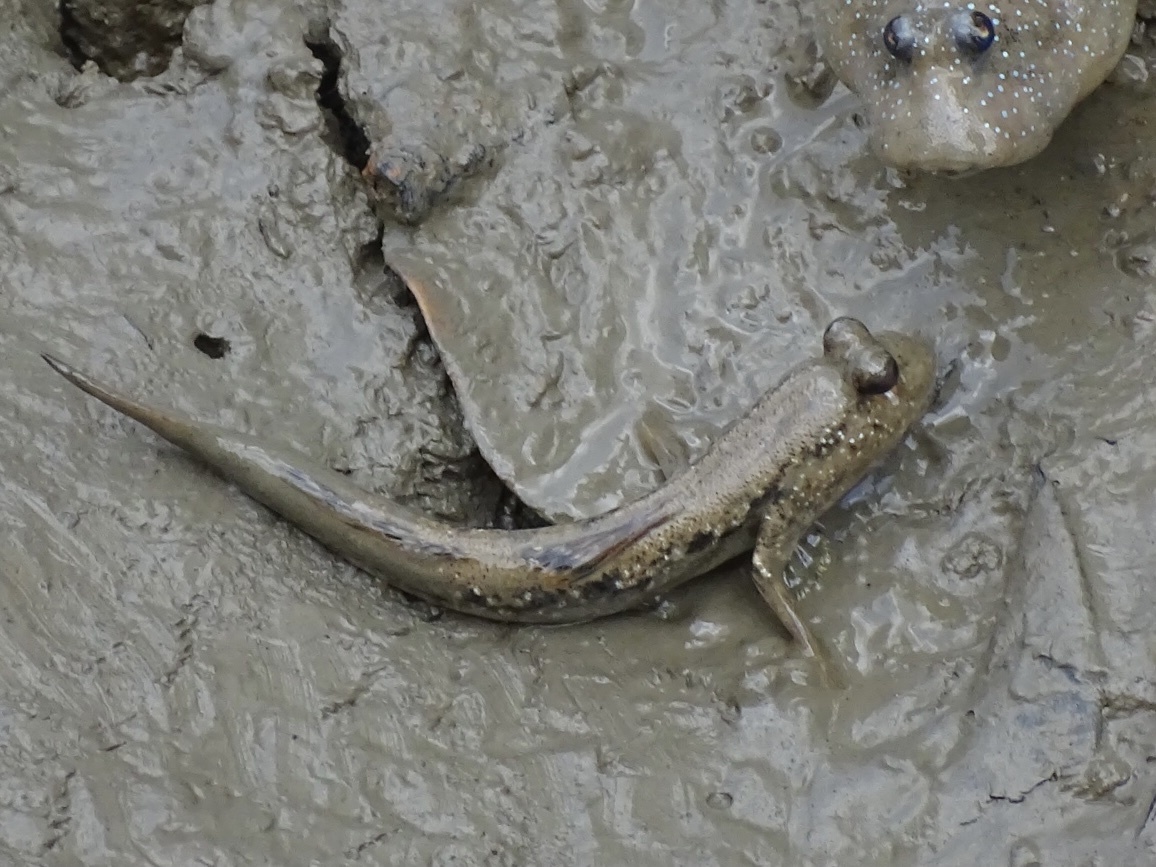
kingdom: Animalia
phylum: Chordata
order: Perciformes
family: Gobiidae
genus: Periophthalmus
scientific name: Periophthalmus magnuspinnatus
